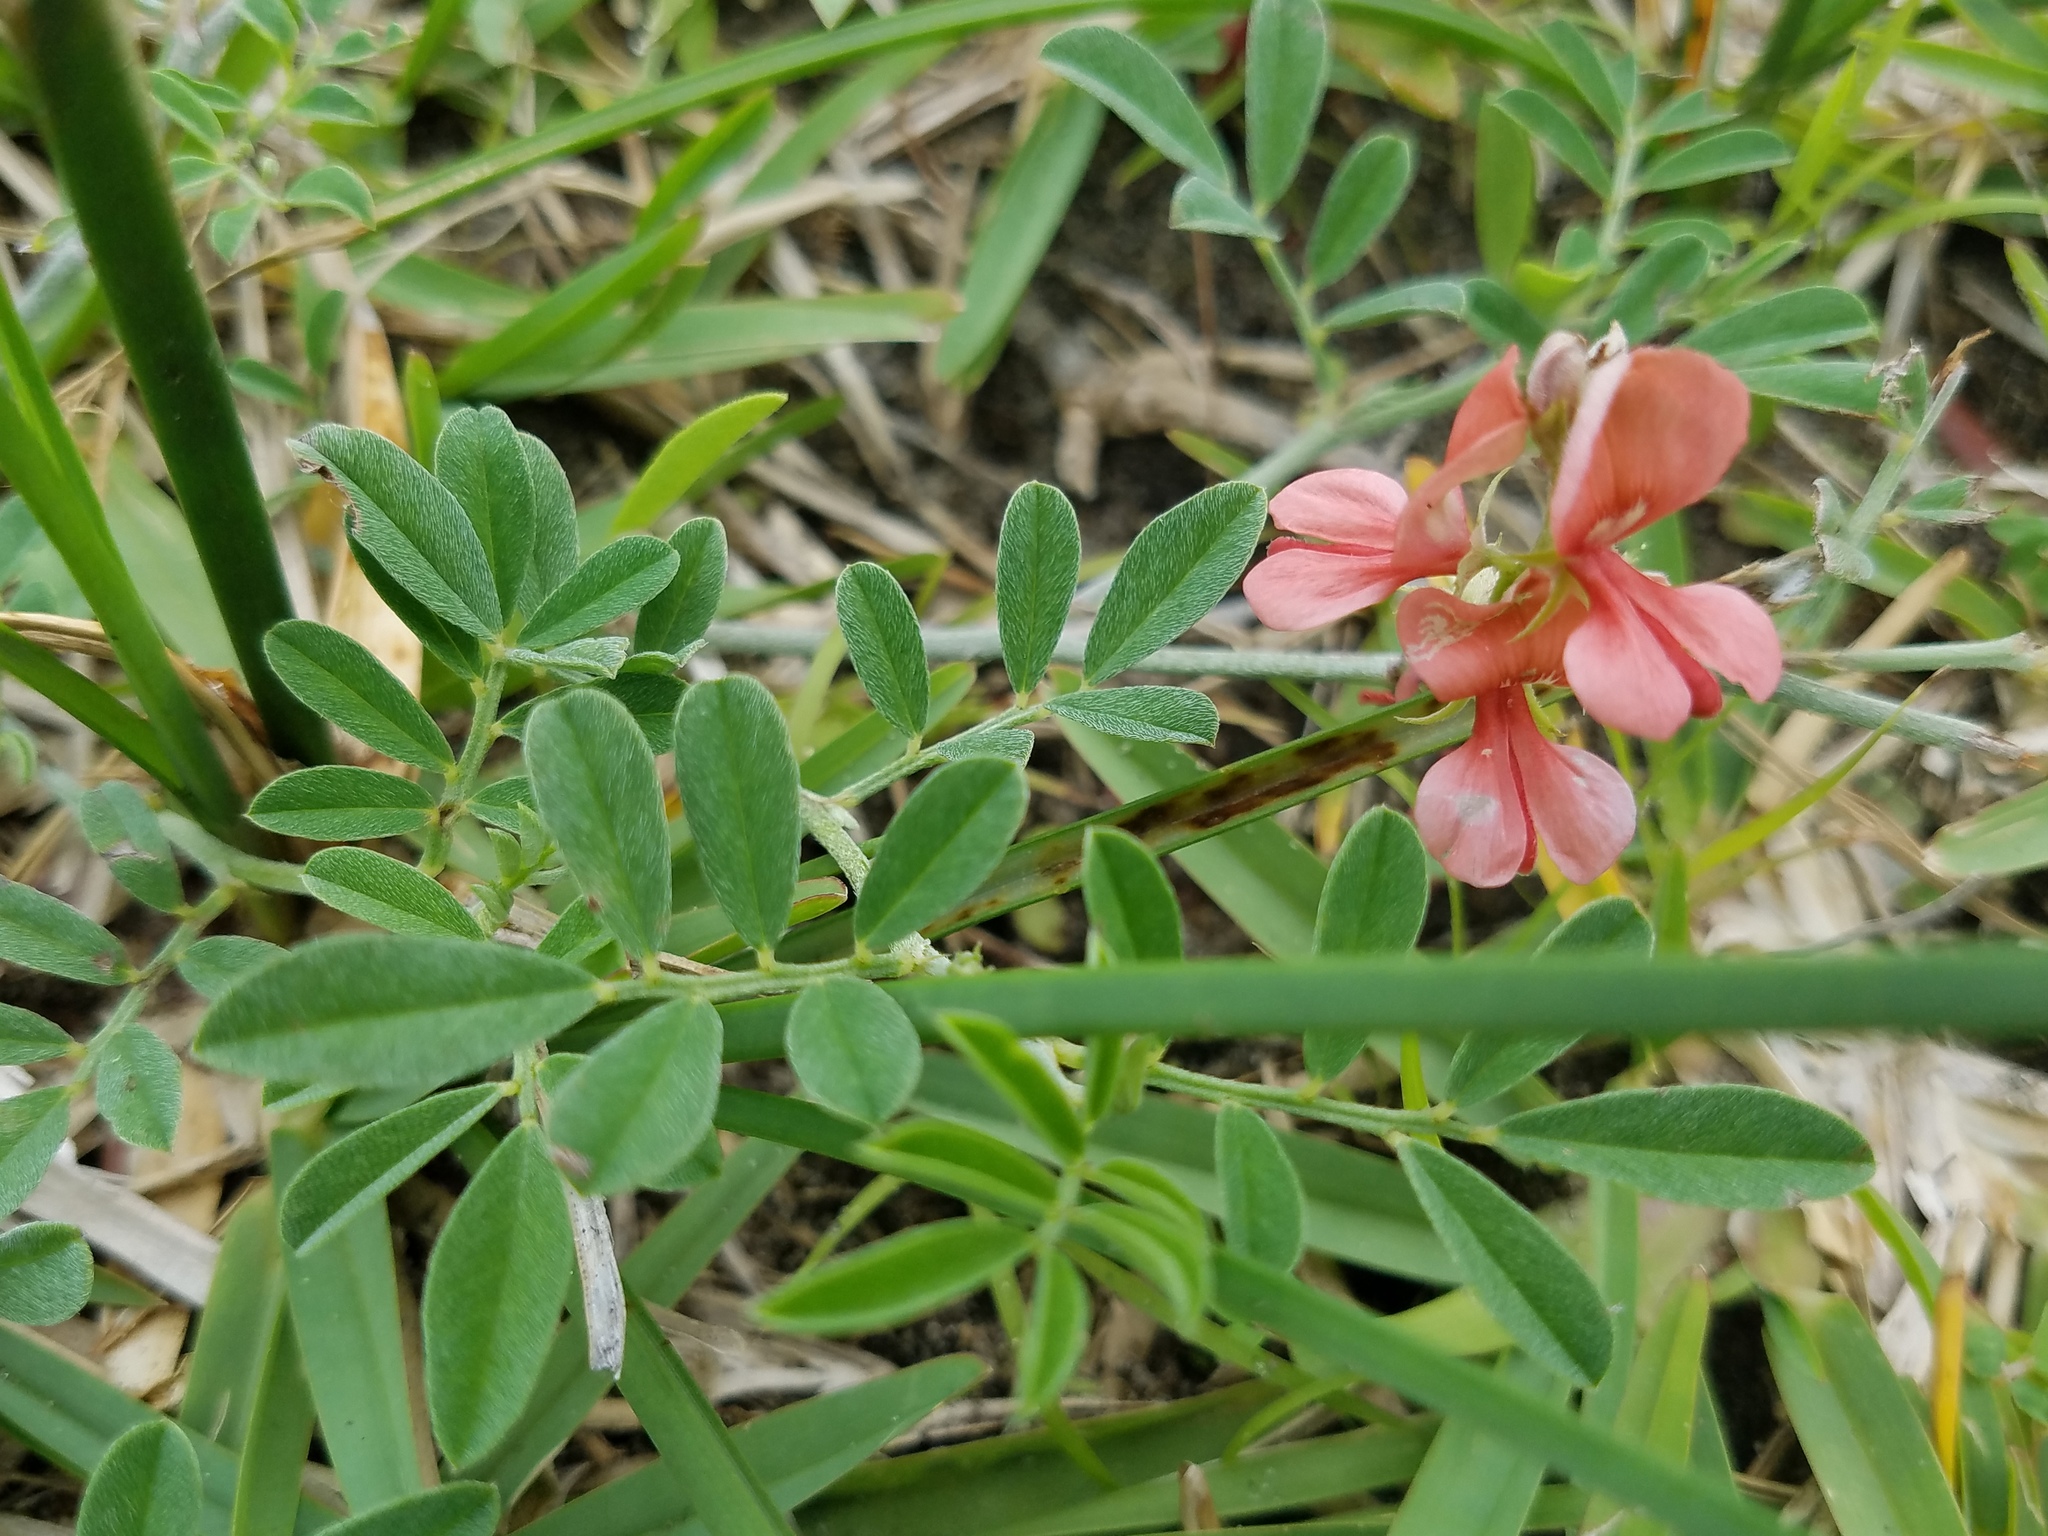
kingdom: Plantae
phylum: Tracheophyta
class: Magnoliopsida
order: Fabales
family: Fabaceae
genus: Indigofera
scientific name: Indigofera miniata
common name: Coast indigo
